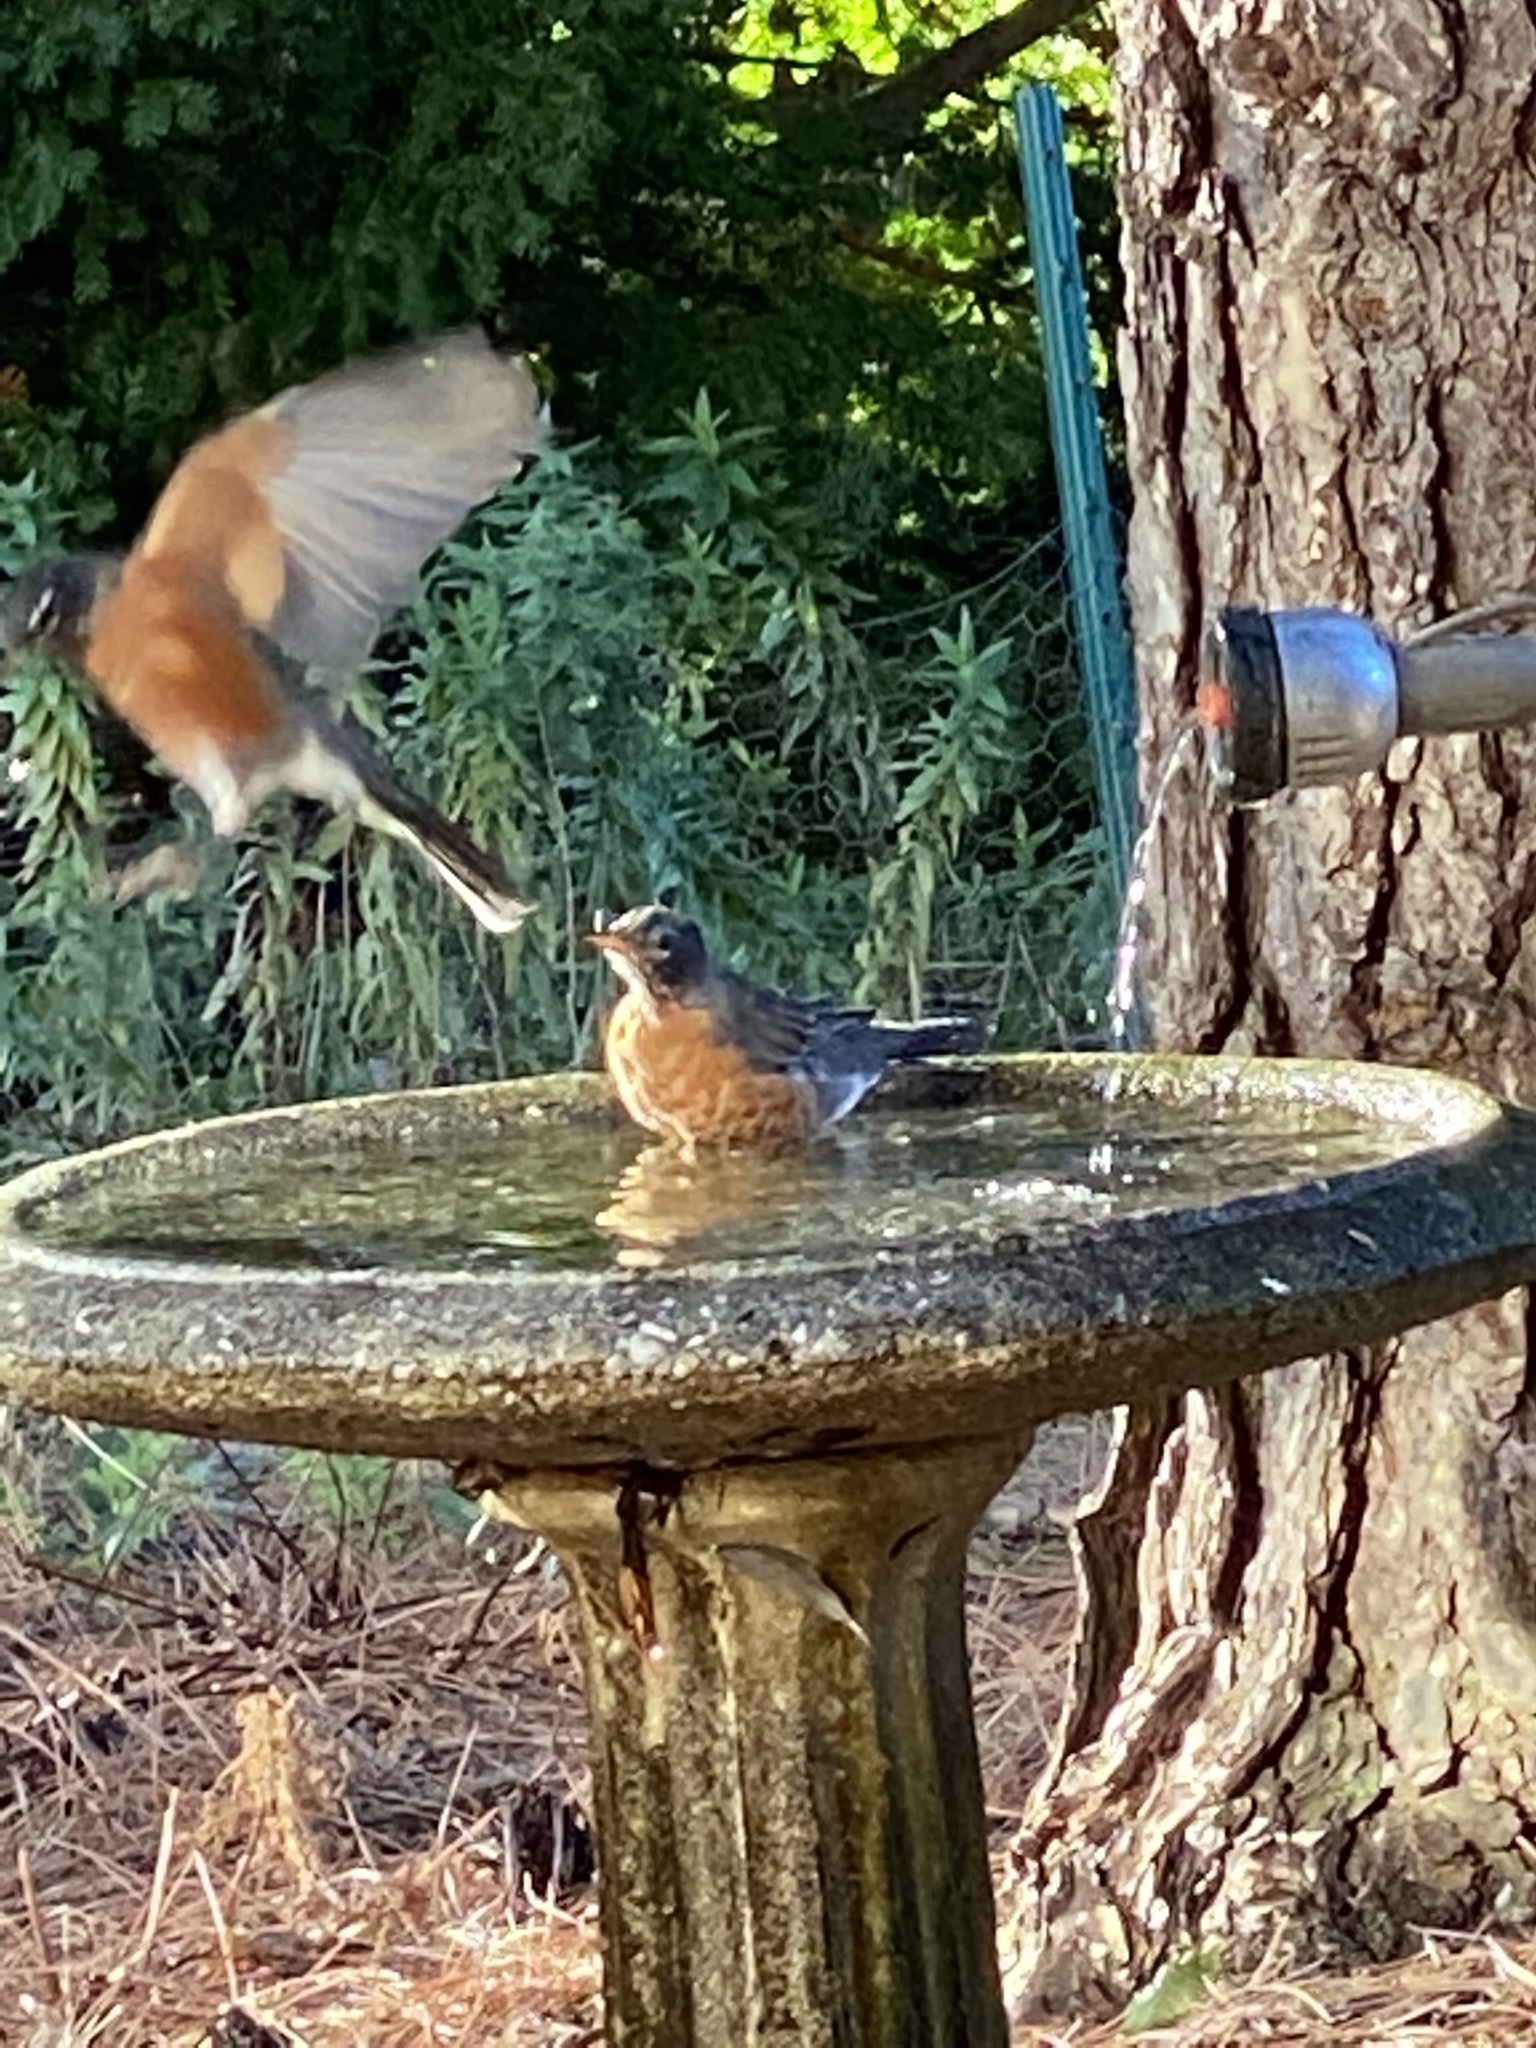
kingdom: Animalia
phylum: Chordata
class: Aves
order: Passeriformes
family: Turdidae
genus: Turdus
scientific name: Turdus migratorius
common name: American robin
